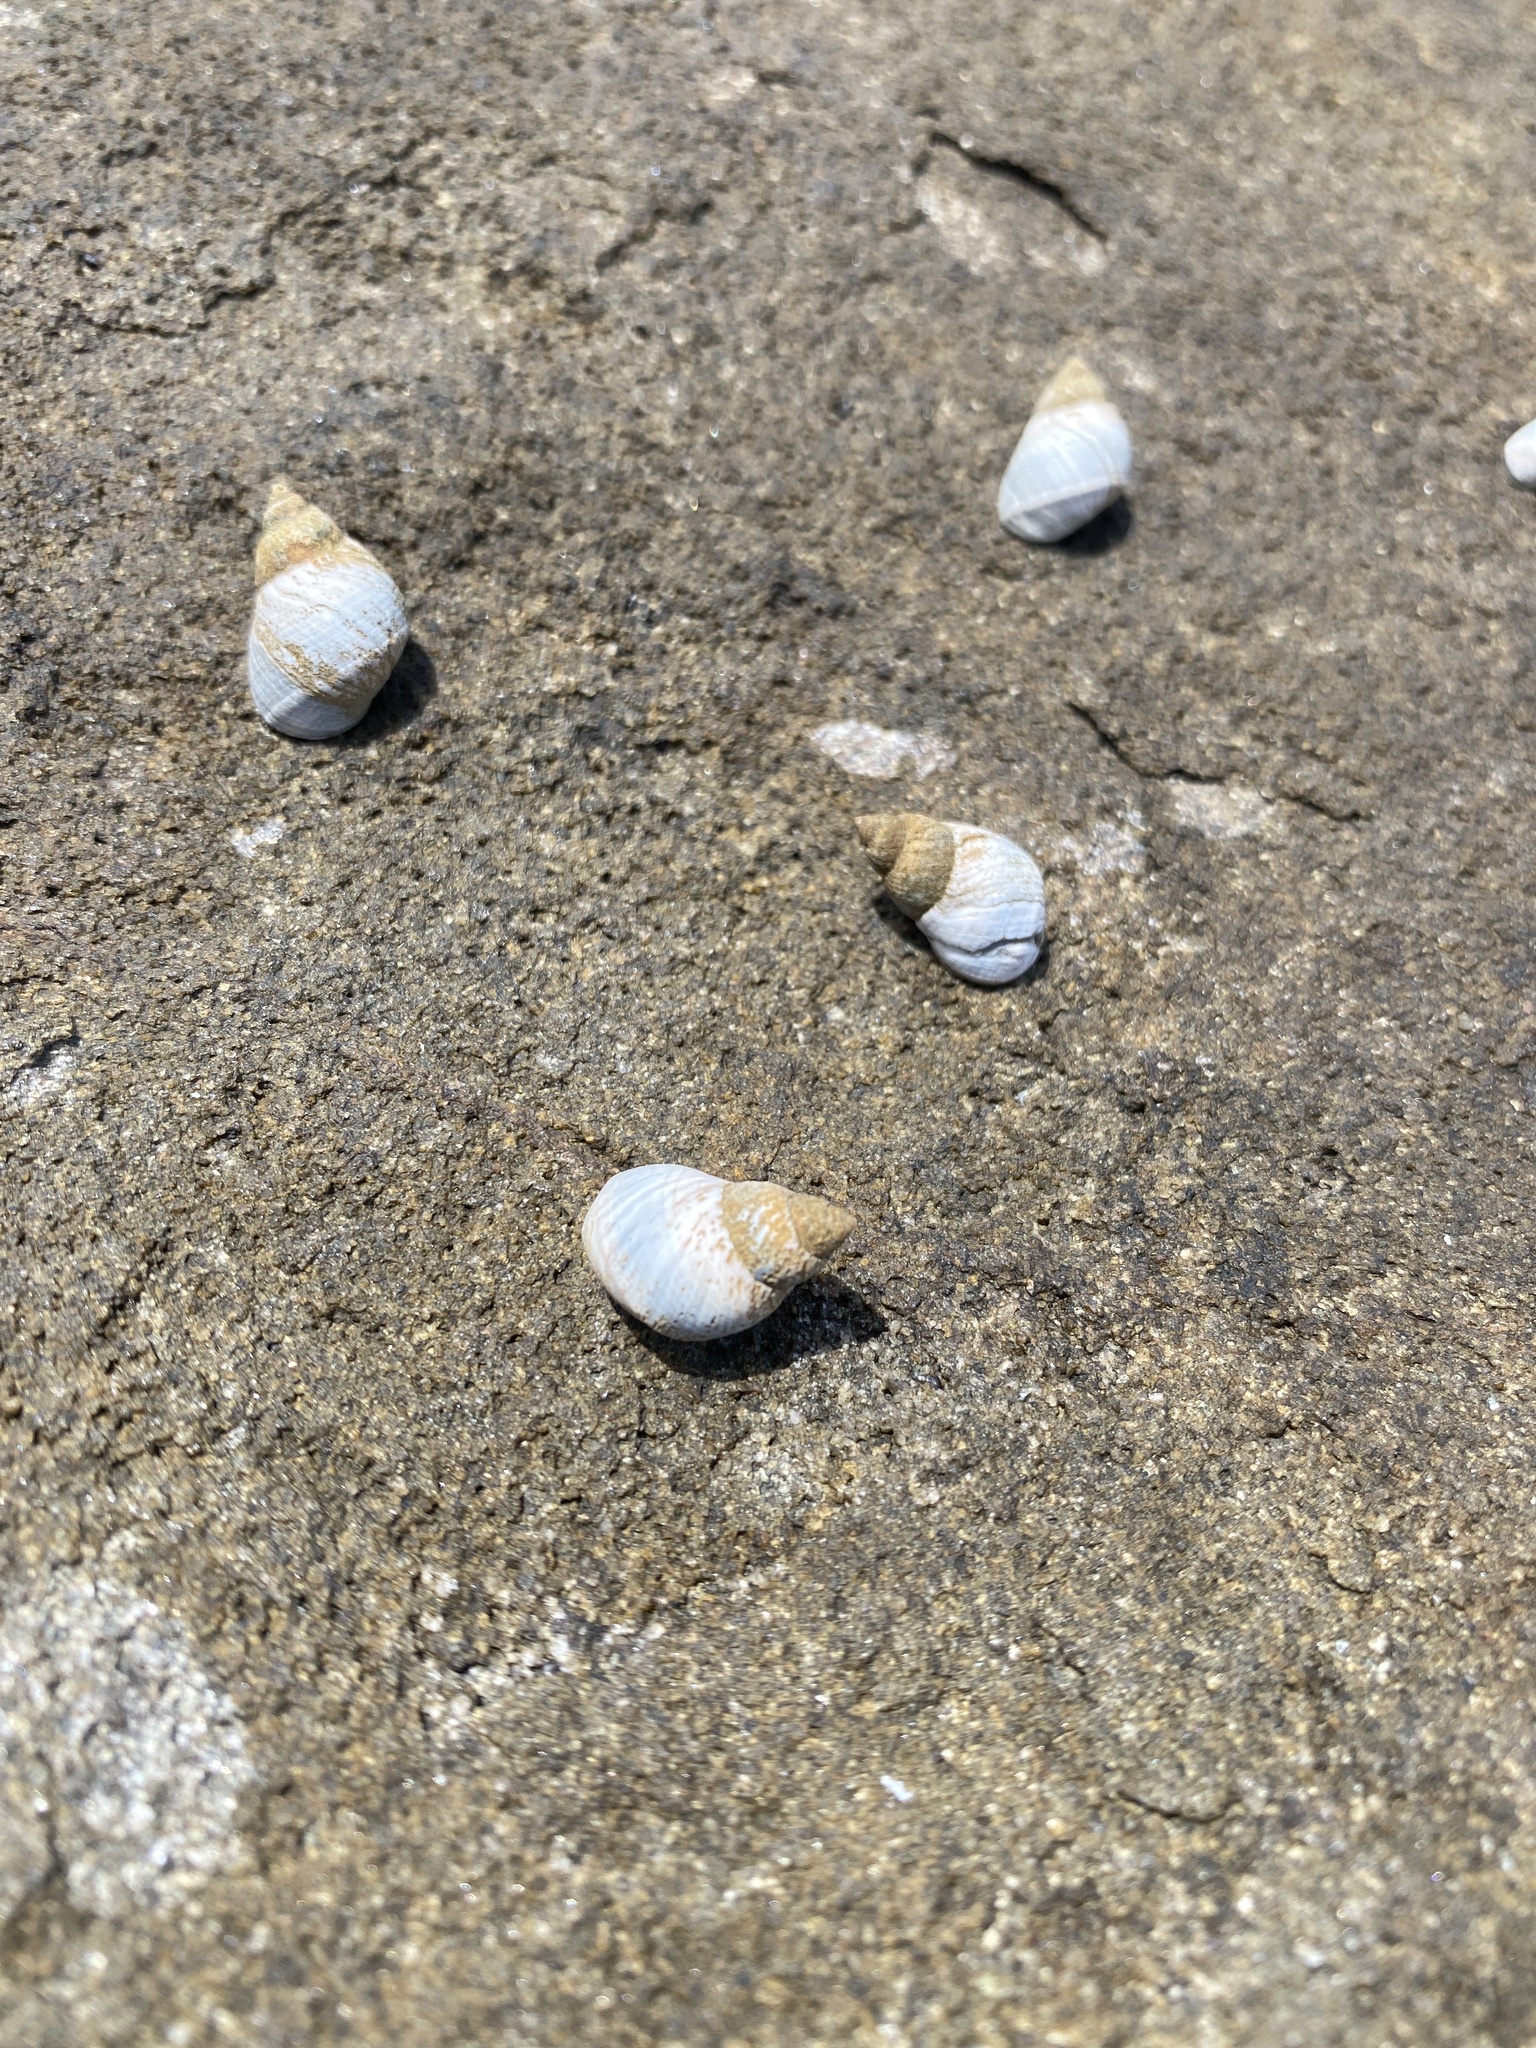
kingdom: Animalia
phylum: Mollusca
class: Gastropoda
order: Littorinimorpha
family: Littorinidae
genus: Austrolittorina
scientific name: Austrolittorina unifasciata
